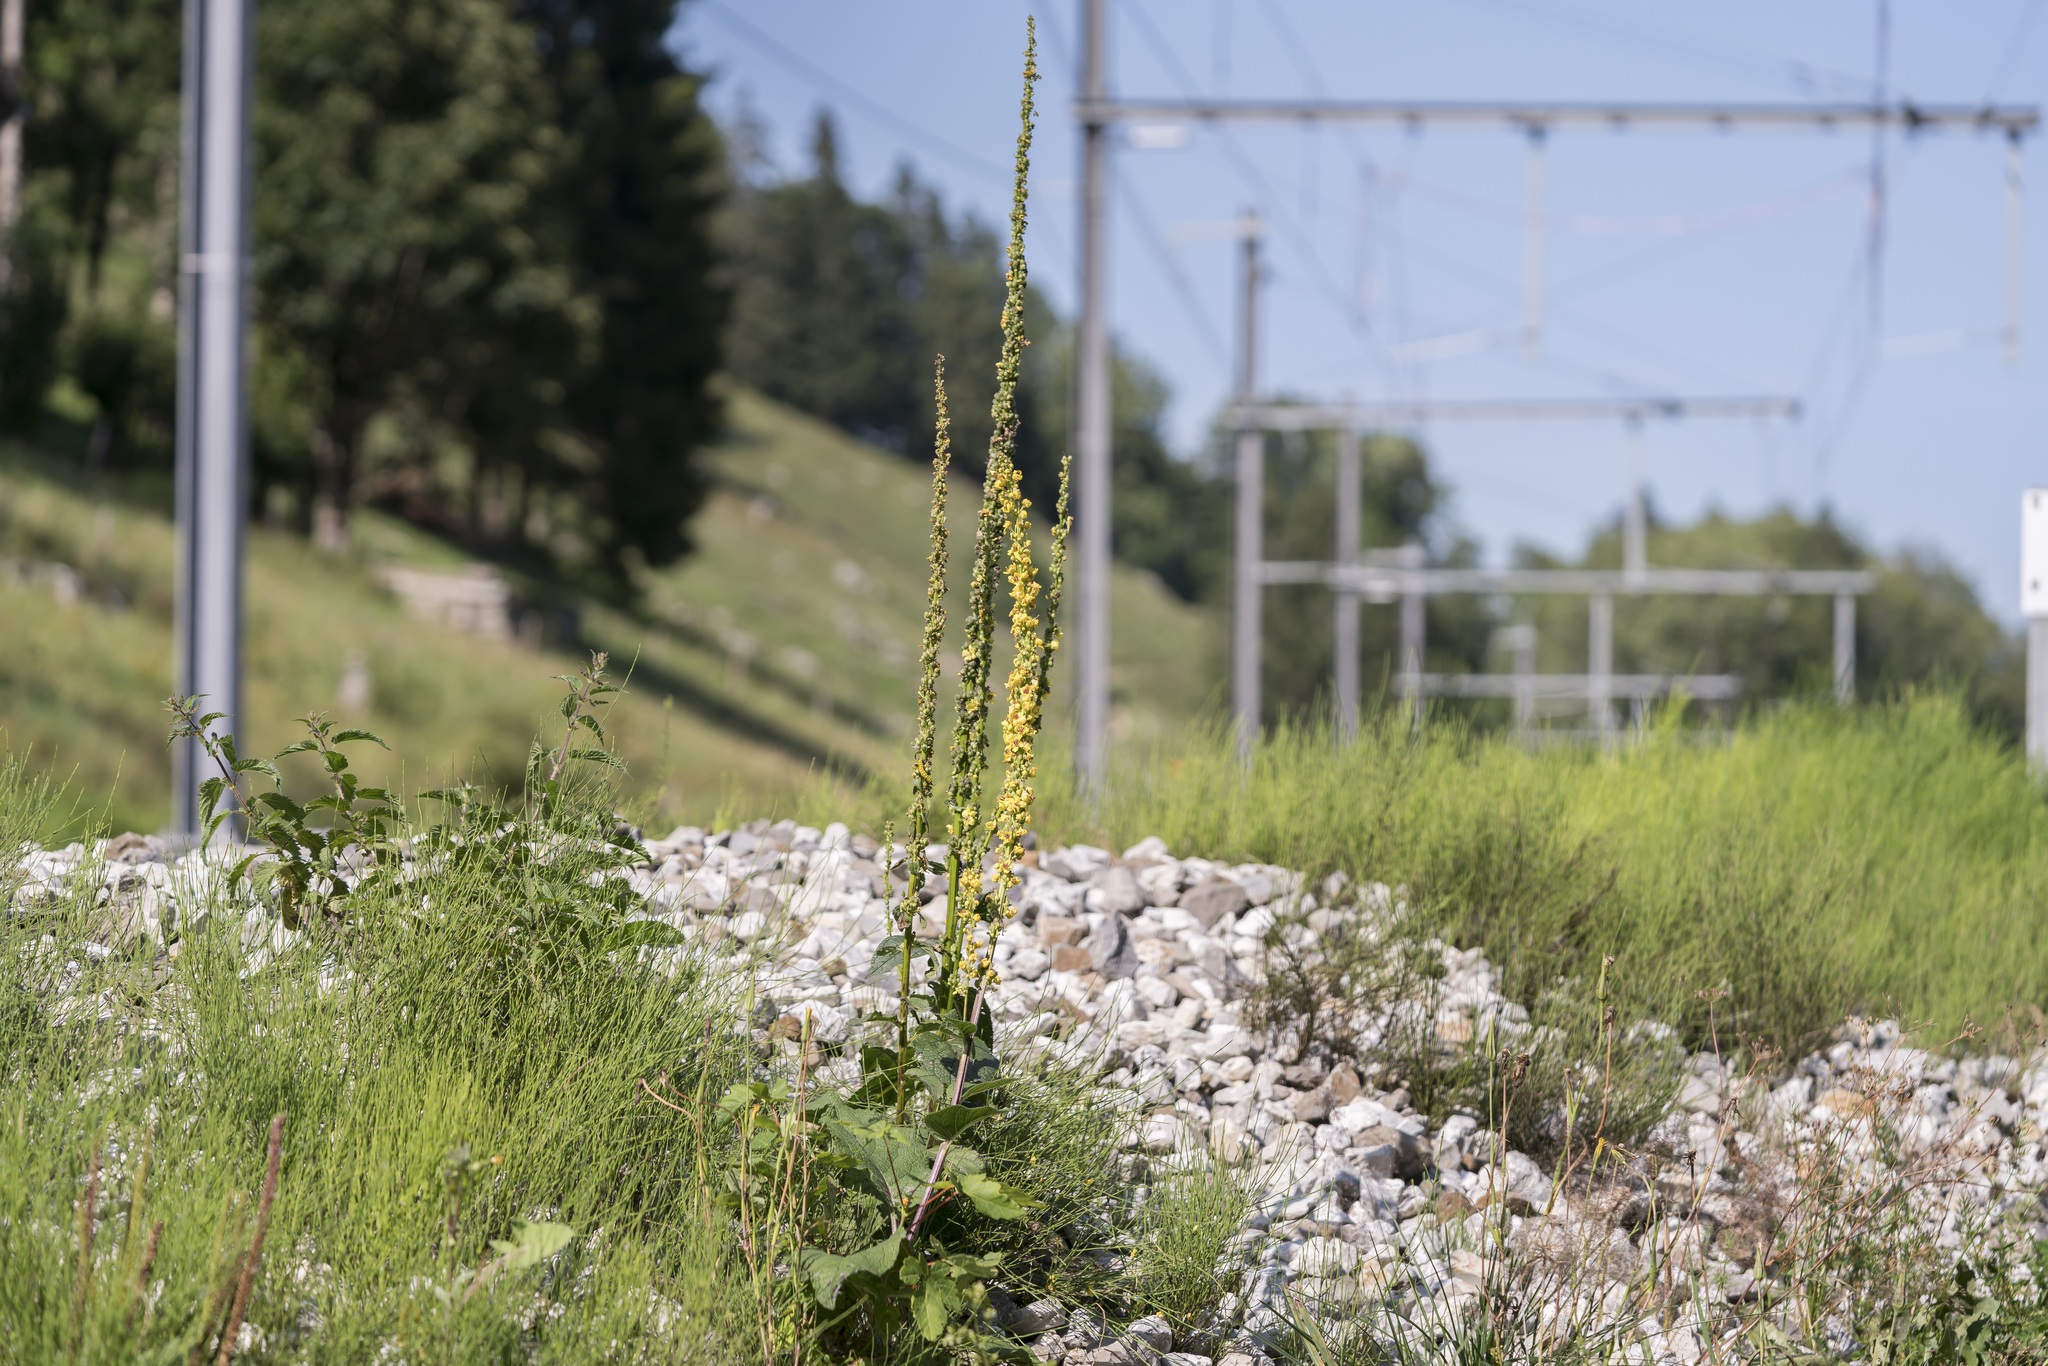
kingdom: Plantae
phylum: Tracheophyta
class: Magnoliopsida
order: Lamiales
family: Scrophulariaceae
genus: Verbascum
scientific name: Verbascum nigrum
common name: Dark mullein
